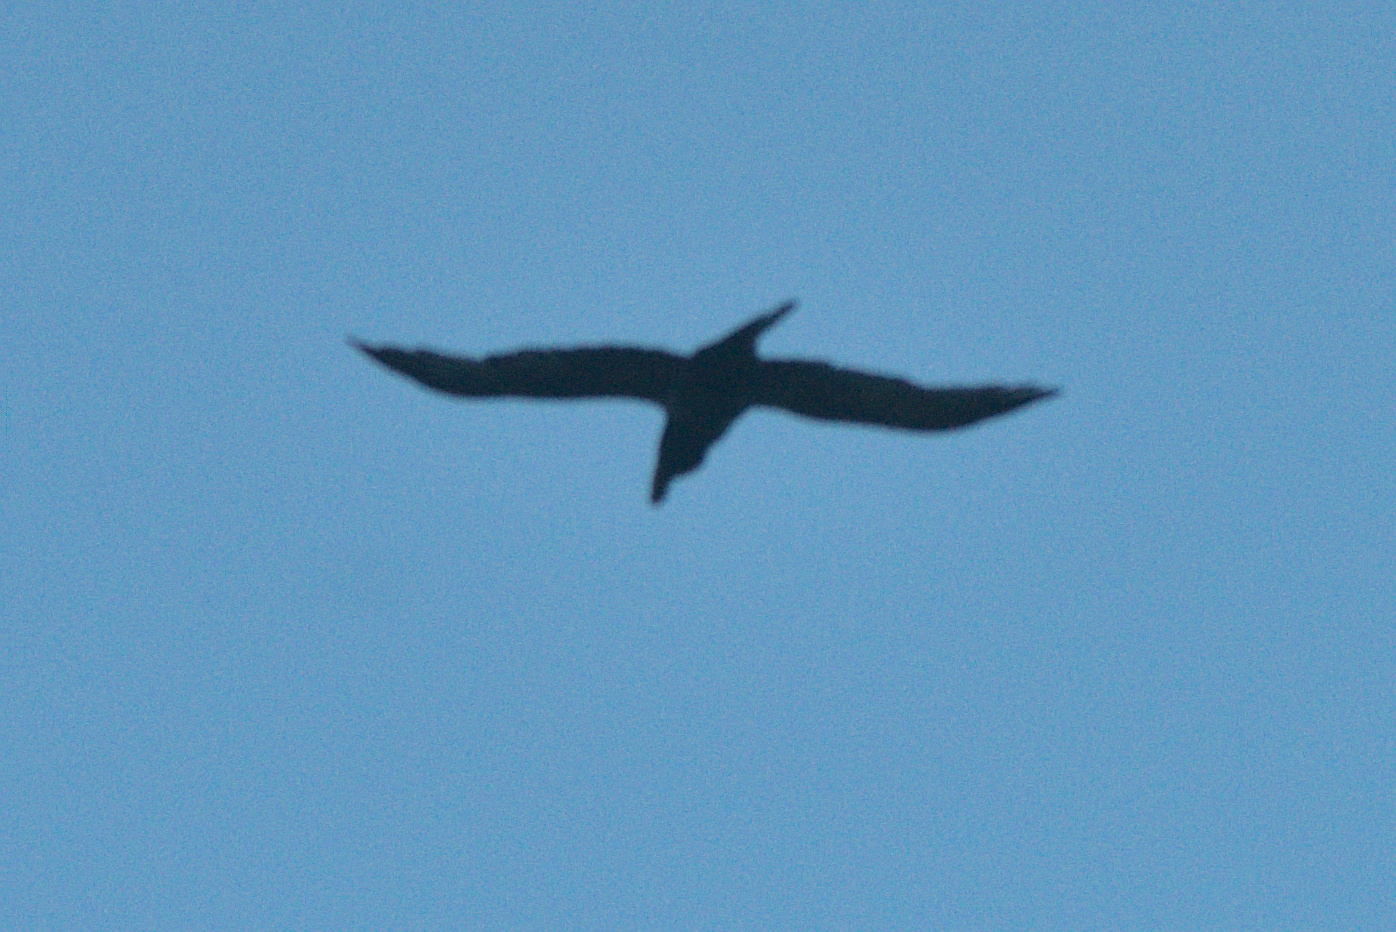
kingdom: Animalia
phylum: Chordata
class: Aves
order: Passeriformes
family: Corvidae
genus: Corvus
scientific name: Corvus tasmanicus
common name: Forest raven
